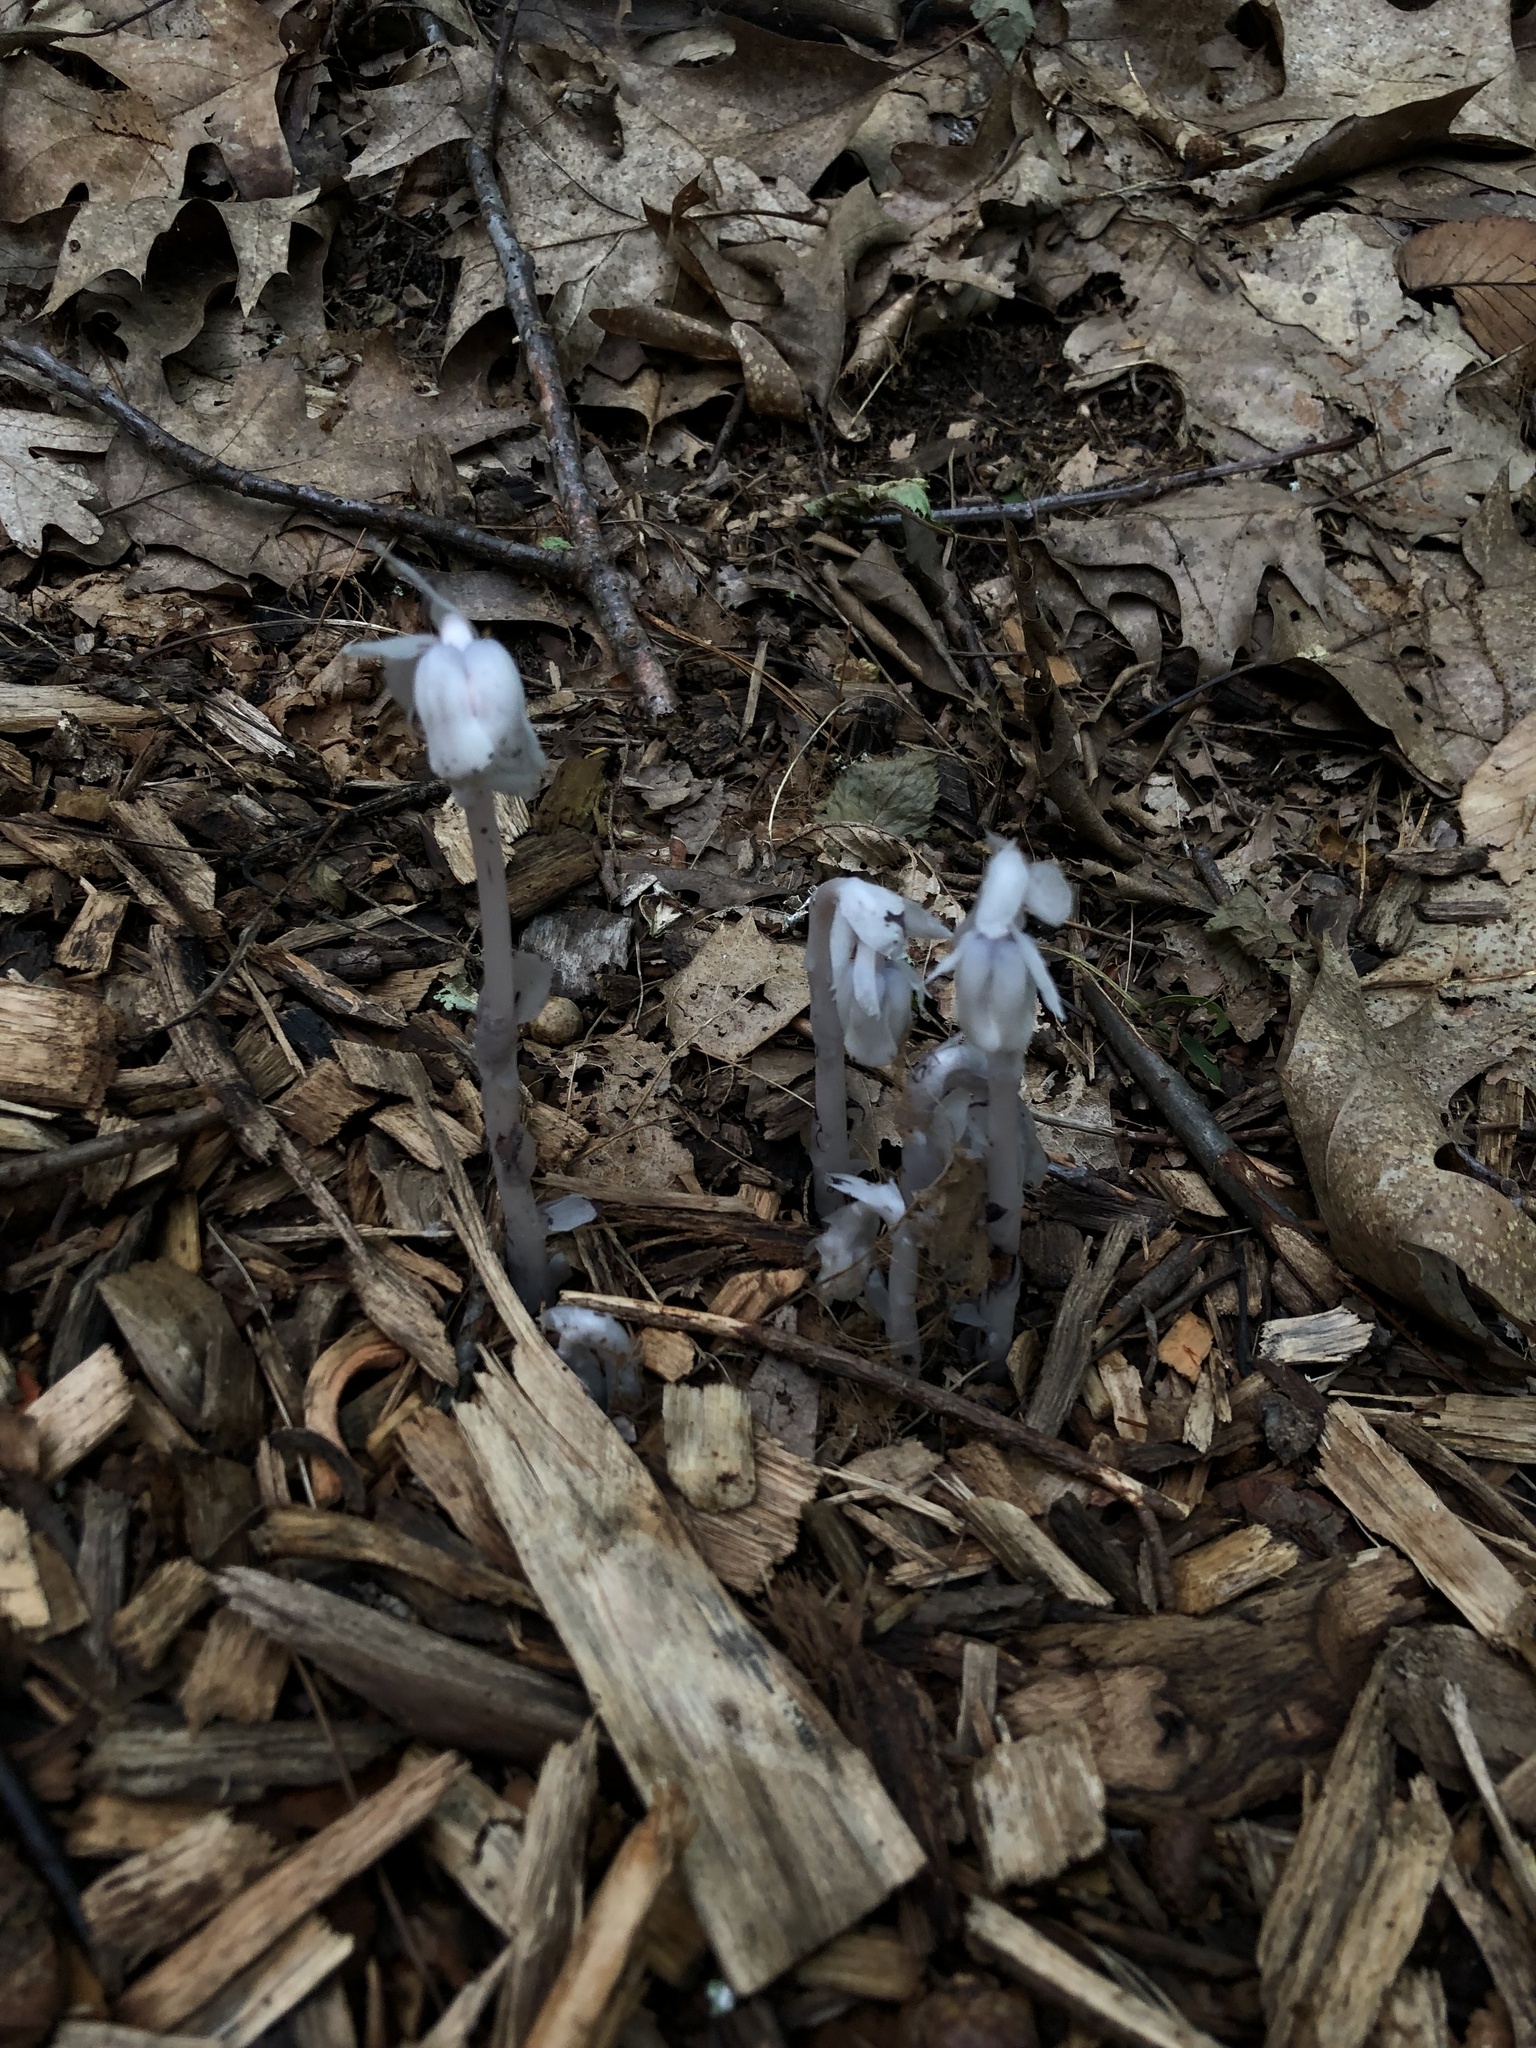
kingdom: Plantae
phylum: Tracheophyta
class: Magnoliopsida
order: Ericales
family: Ericaceae
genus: Monotropa
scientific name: Monotropa uniflora
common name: Convulsion root
